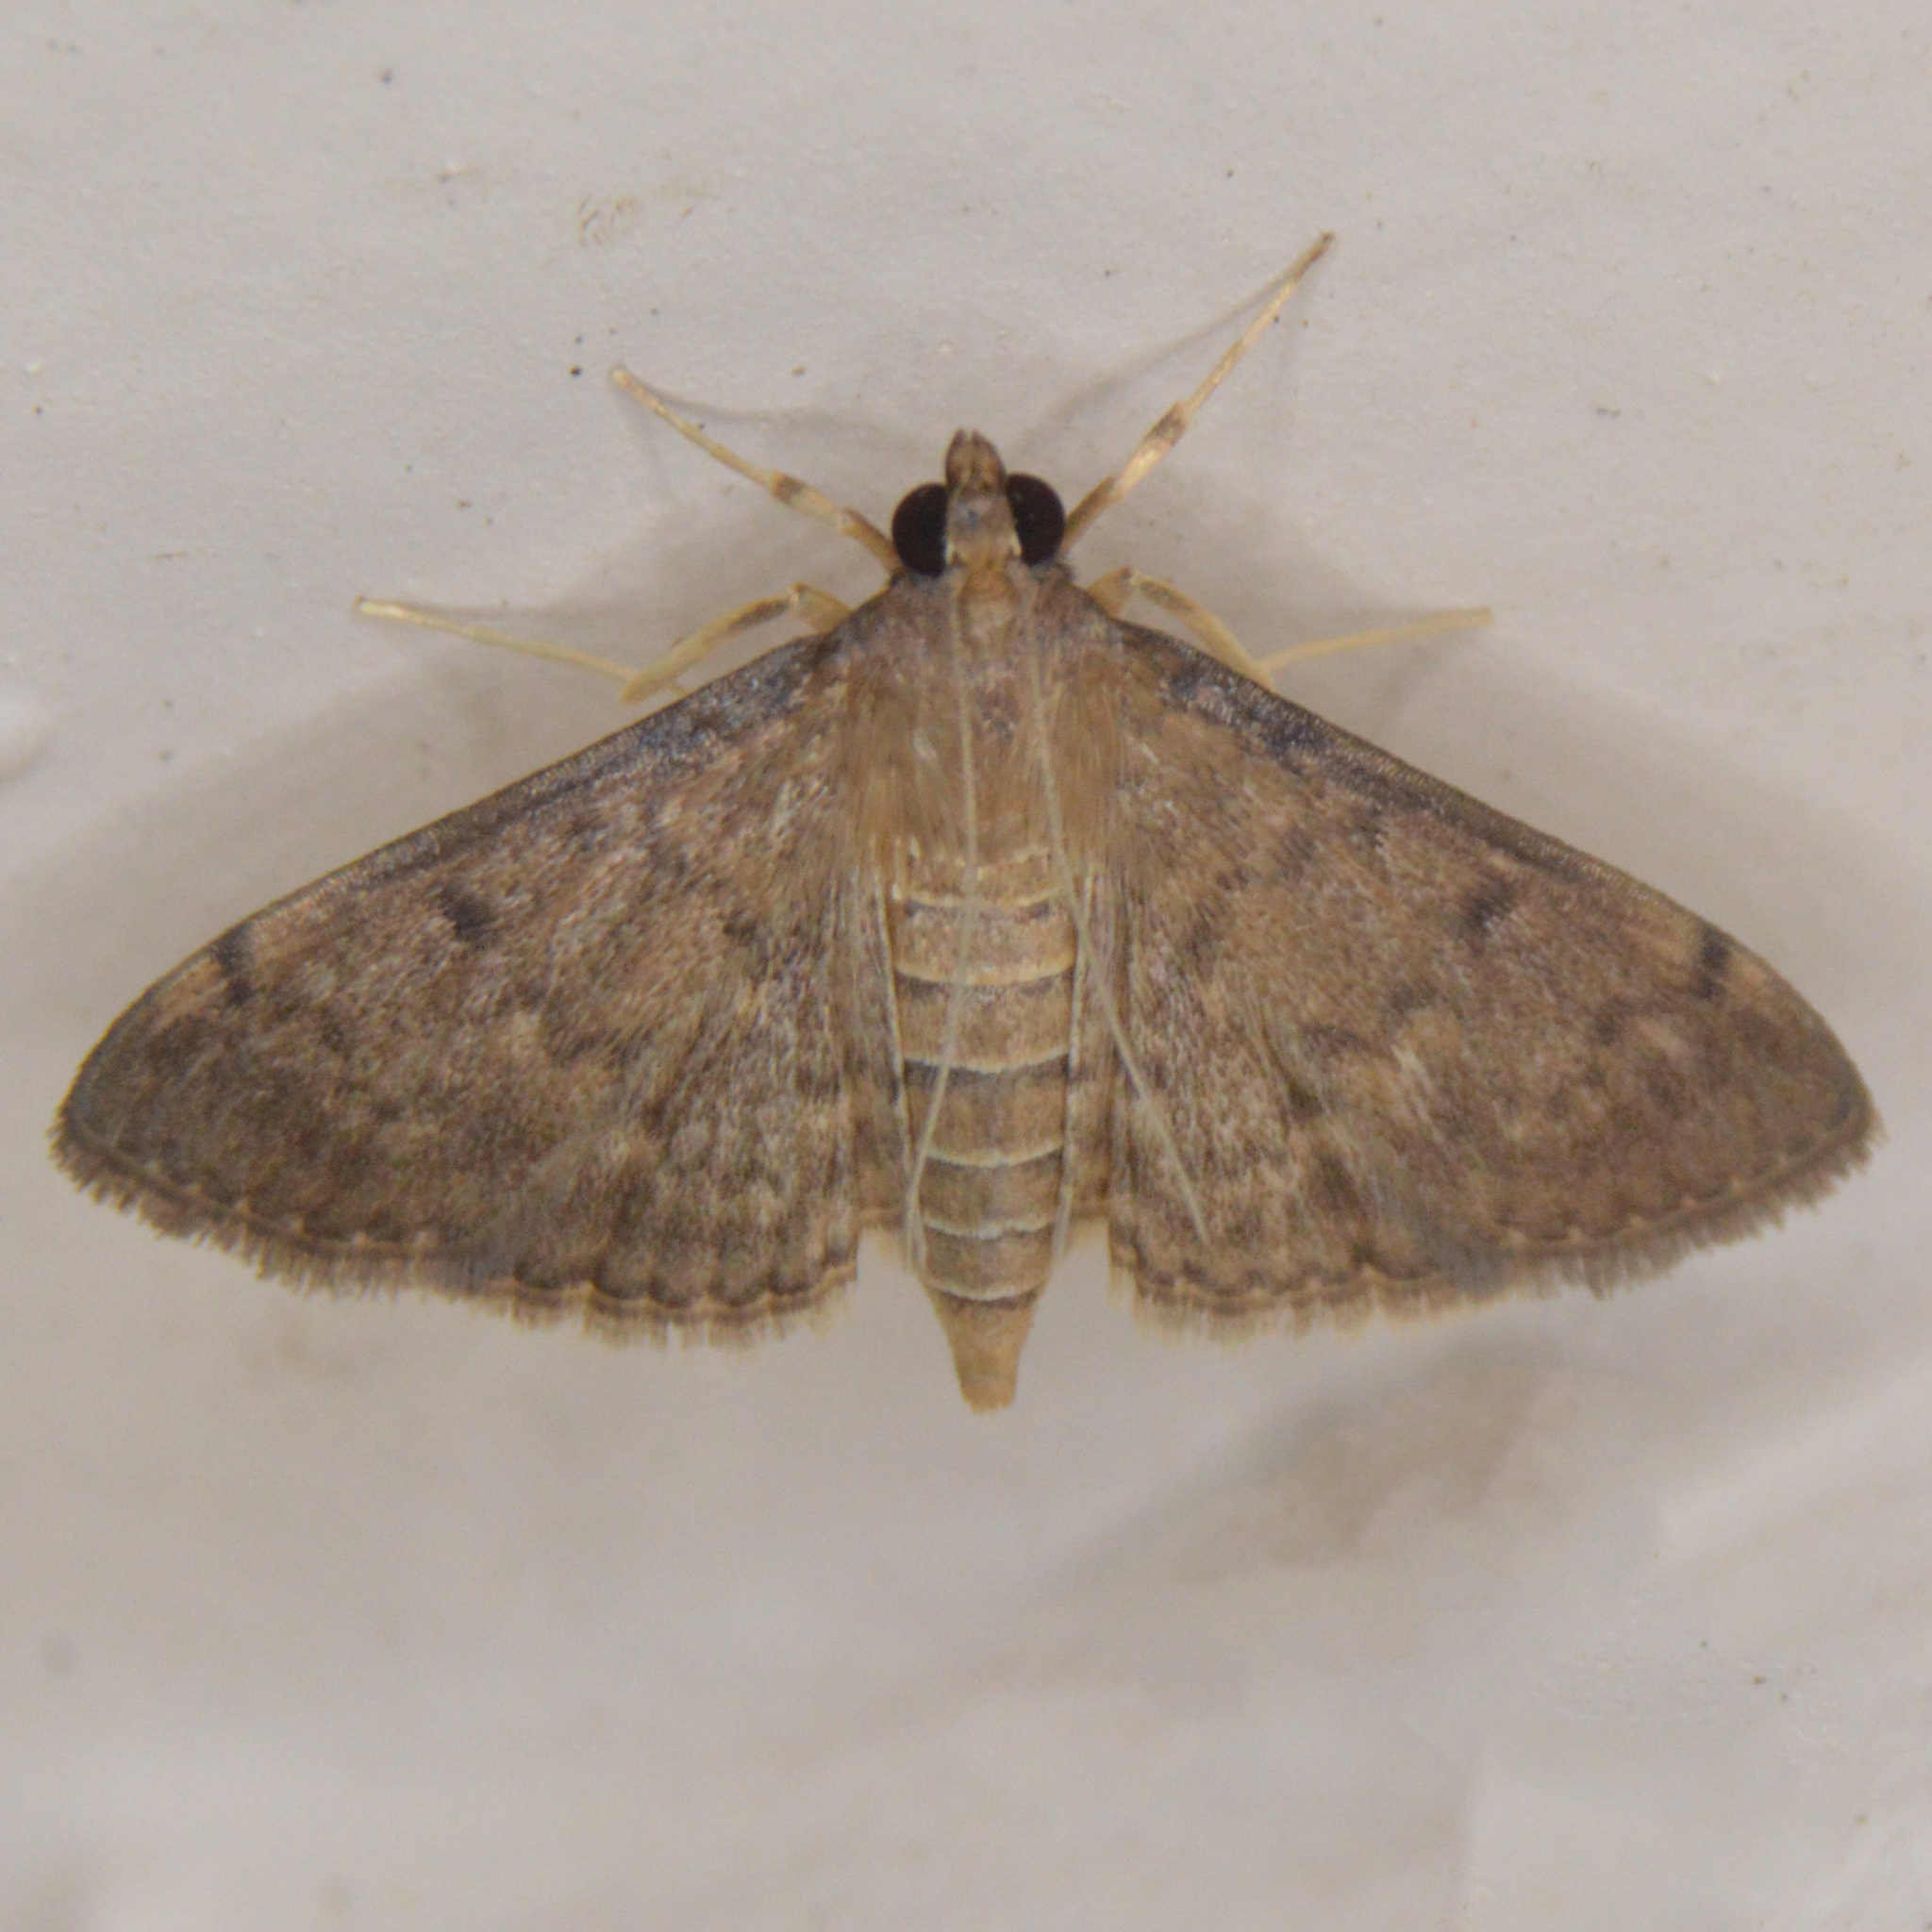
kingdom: Animalia
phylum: Arthropoda
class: Insecta
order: Lepidoptera
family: Crambidae
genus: Herpetogramma
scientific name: Herpetogramma phaeopteralis
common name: Dusky herpetogramma moth
